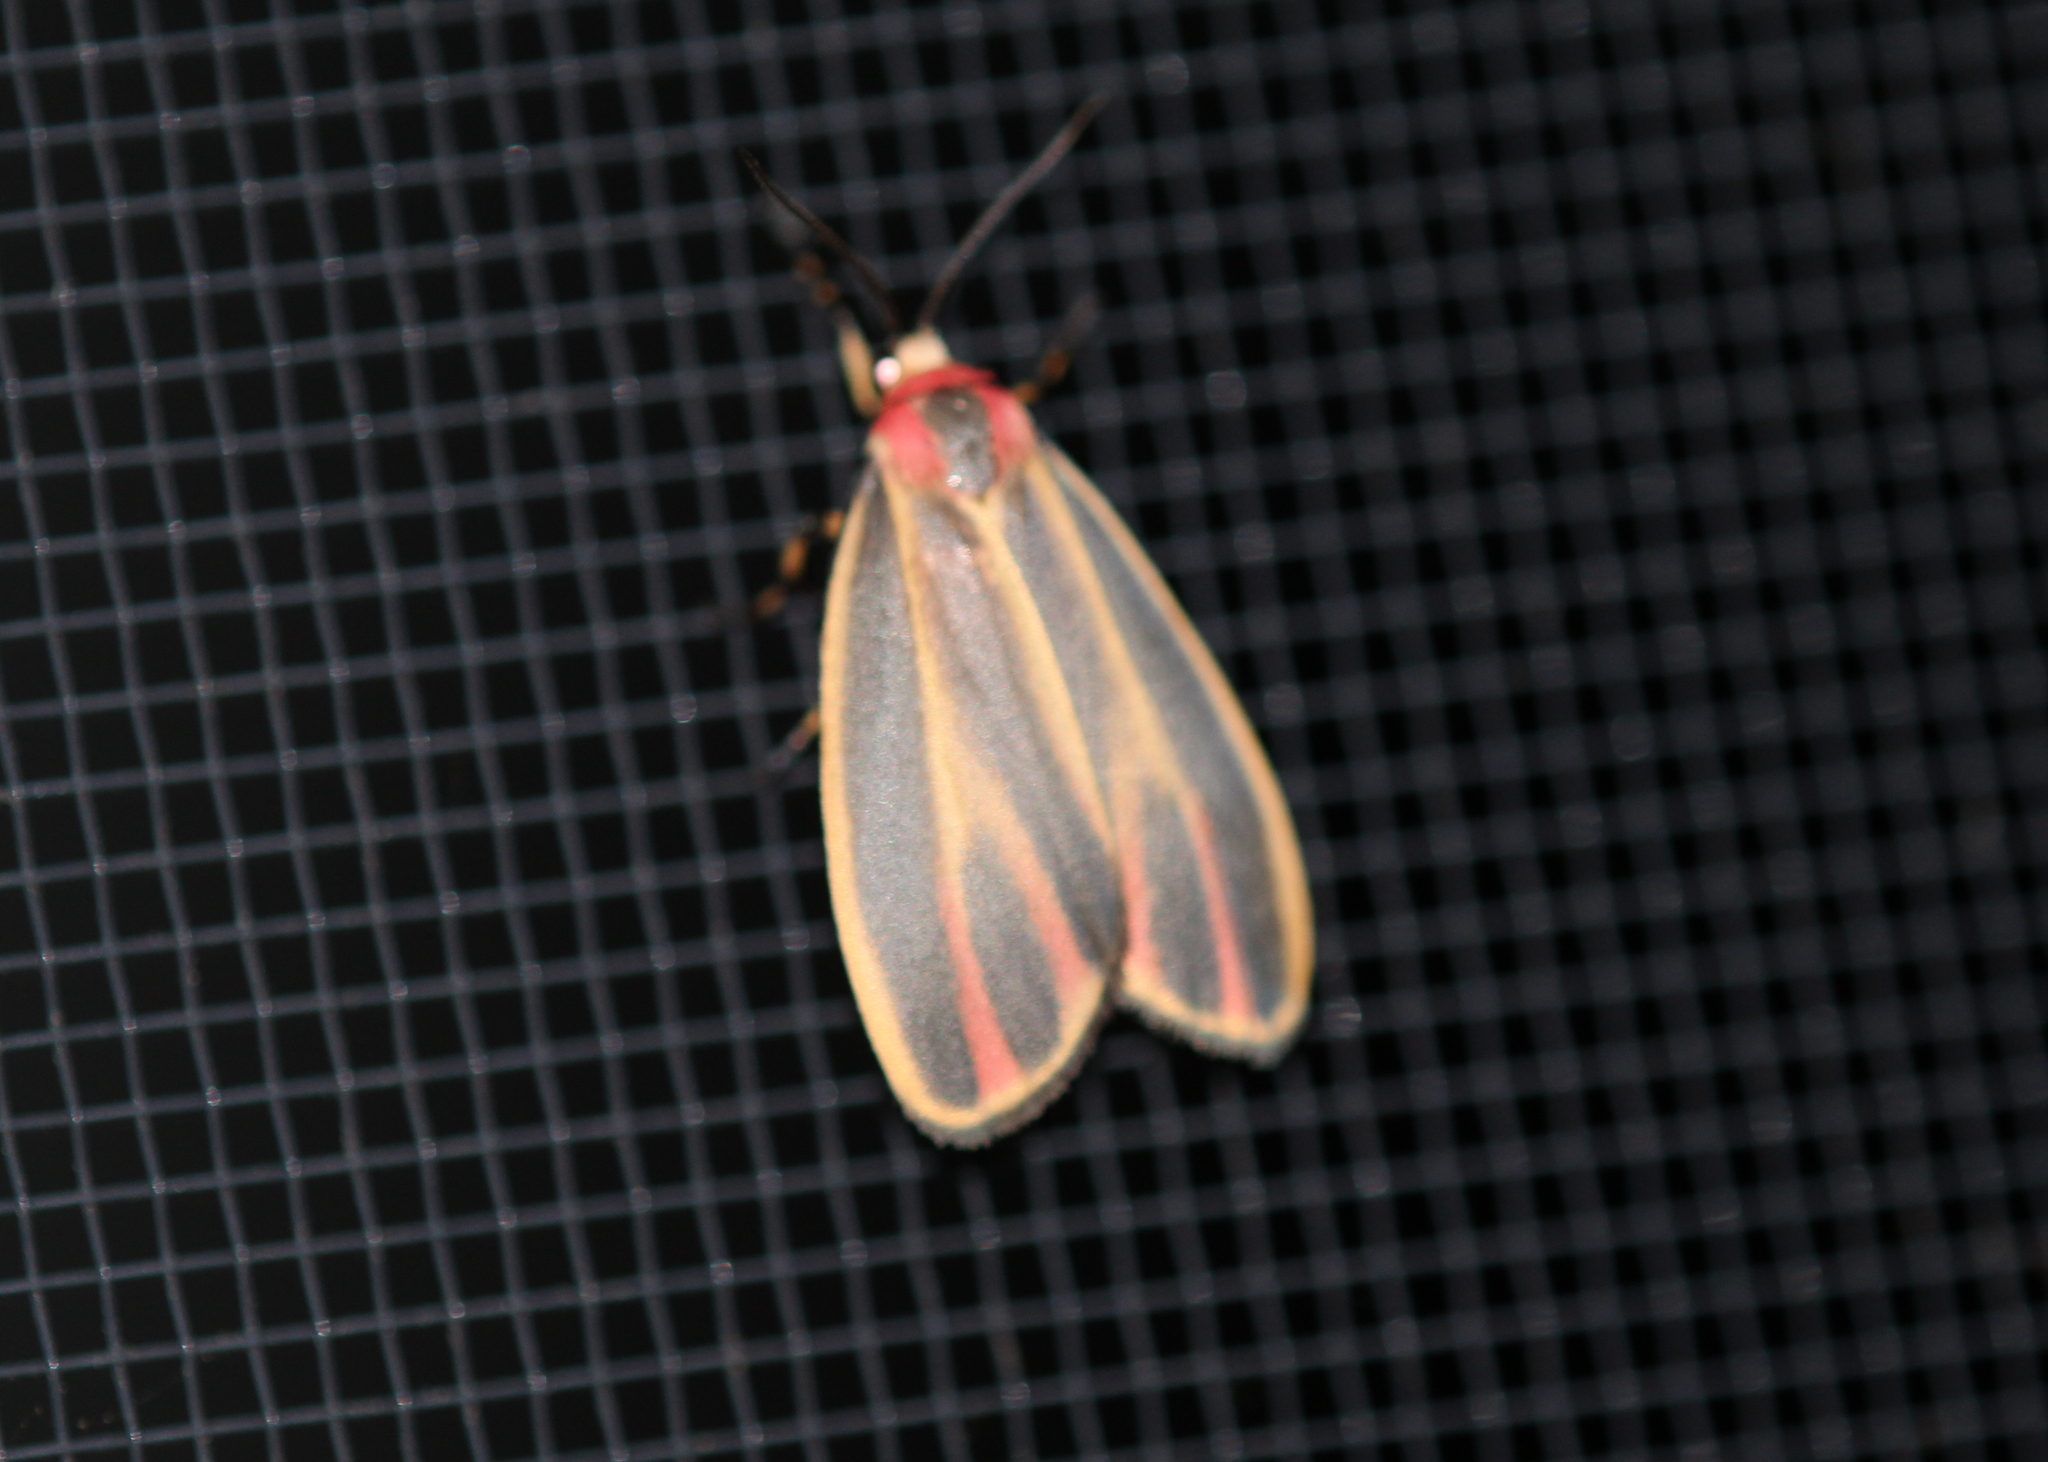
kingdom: Animalia
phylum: Arthropoda
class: Insecta
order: Lepidoptera
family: Erebidae
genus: Hypoprepia
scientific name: Hypoprepia fucosa
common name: Painted lichen moth
